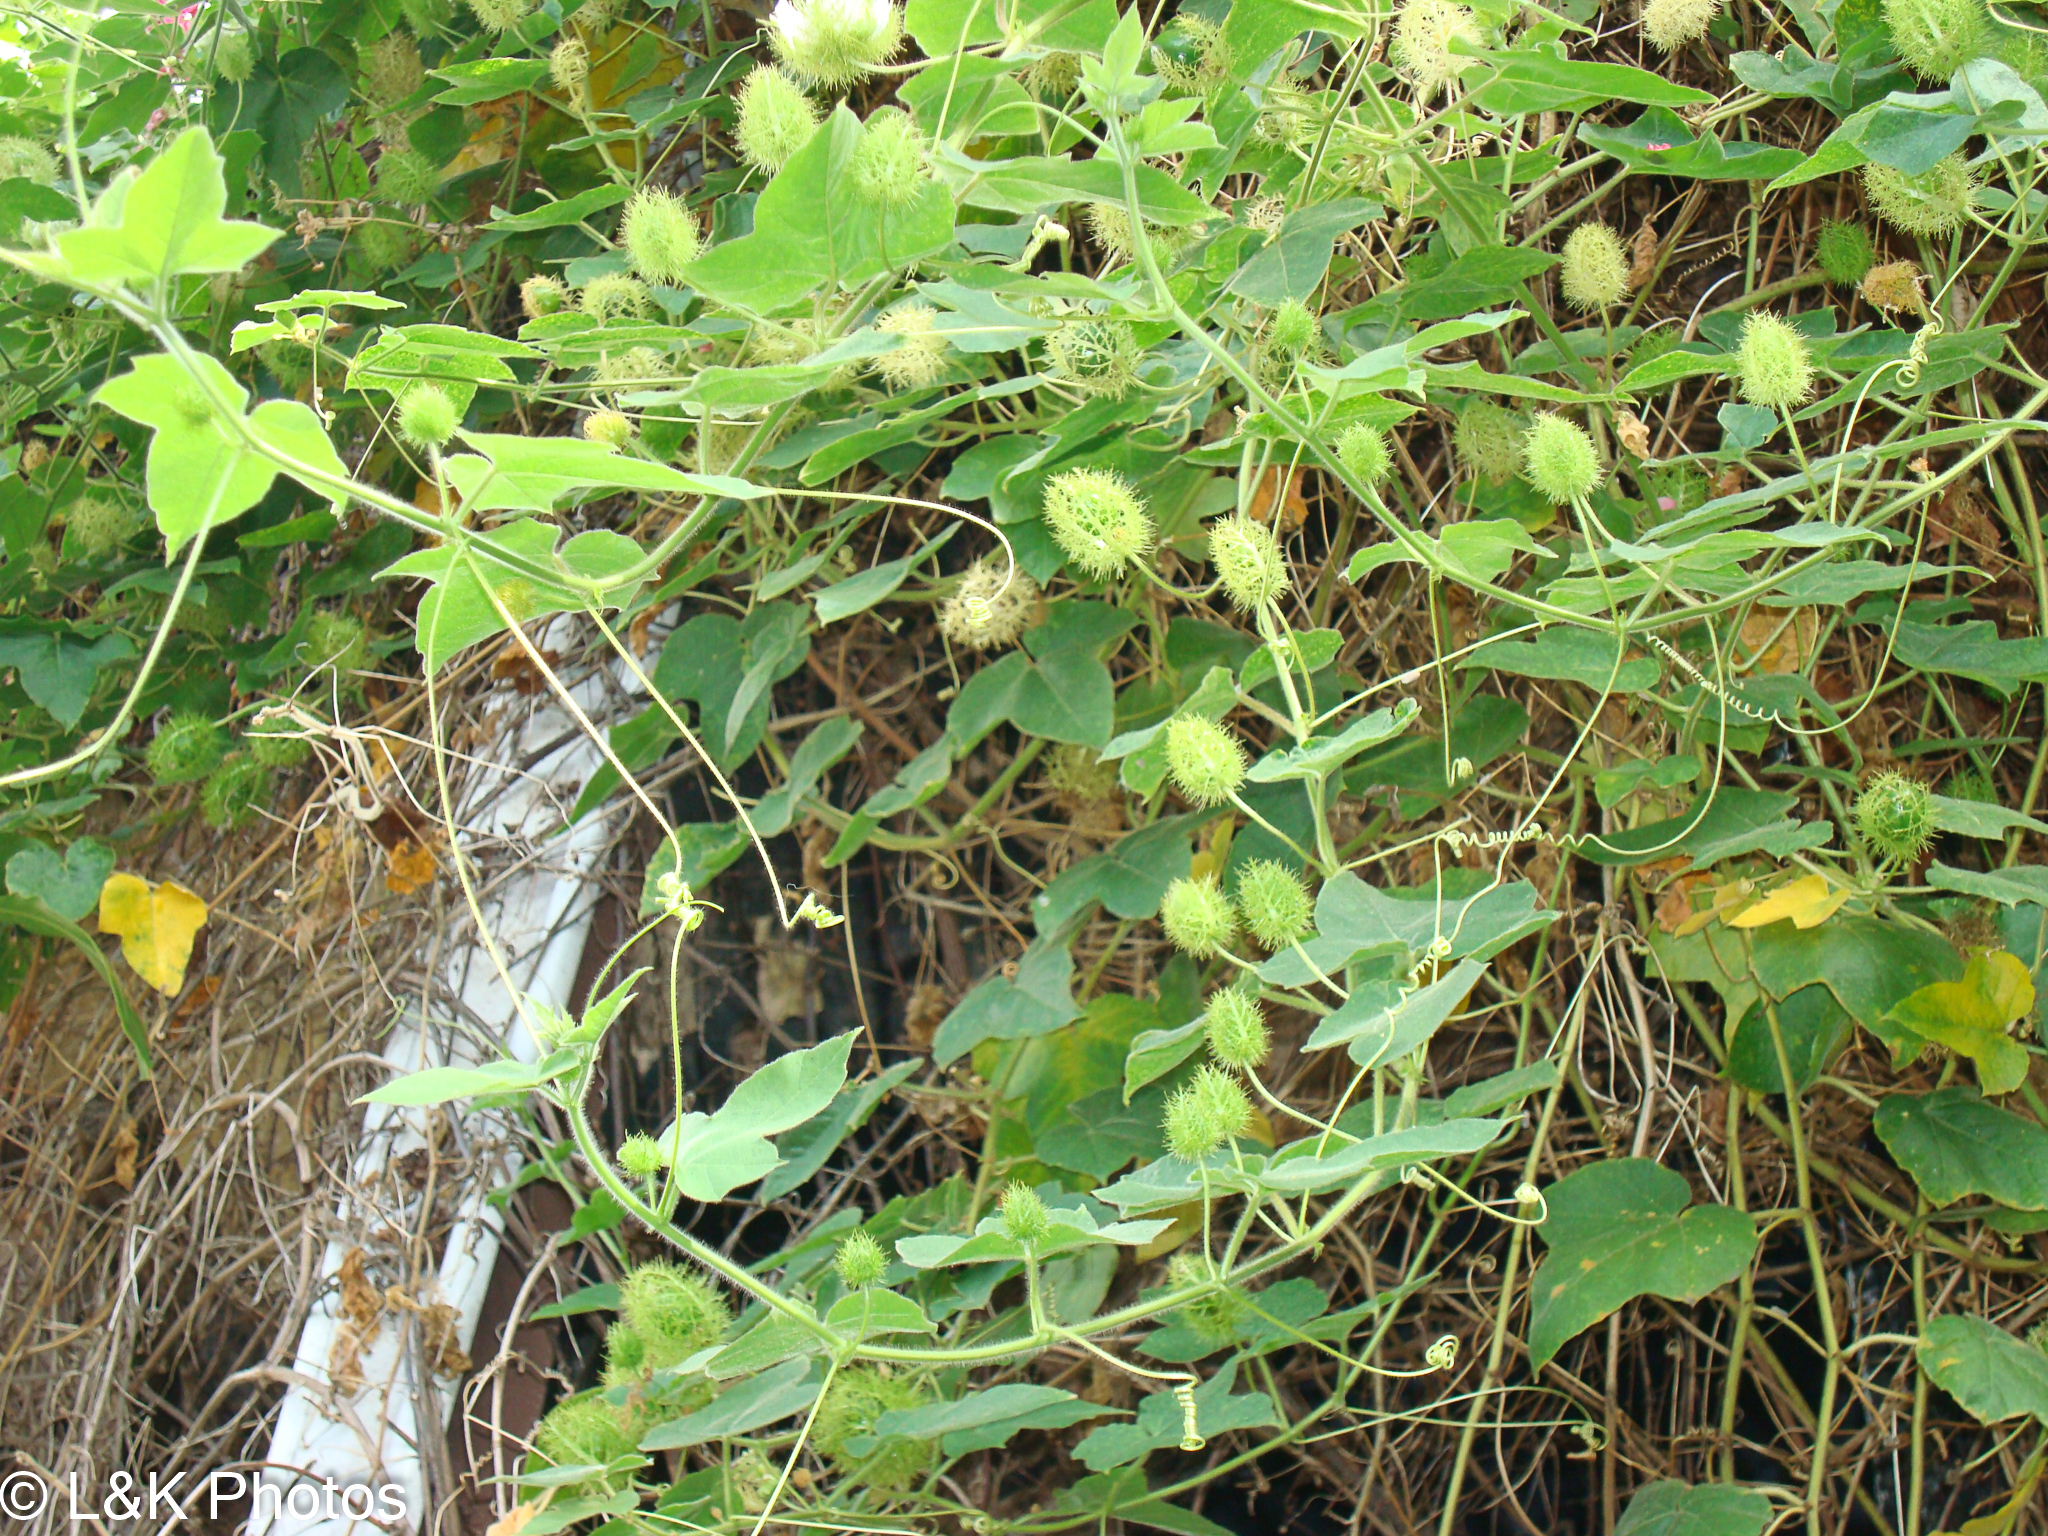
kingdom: Plantae
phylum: Tracheophyta
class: Magnoliopsida
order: Malpighiales
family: Passifloraceae
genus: Passiflora
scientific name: Passiflora foetida
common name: Fetid passionflower
